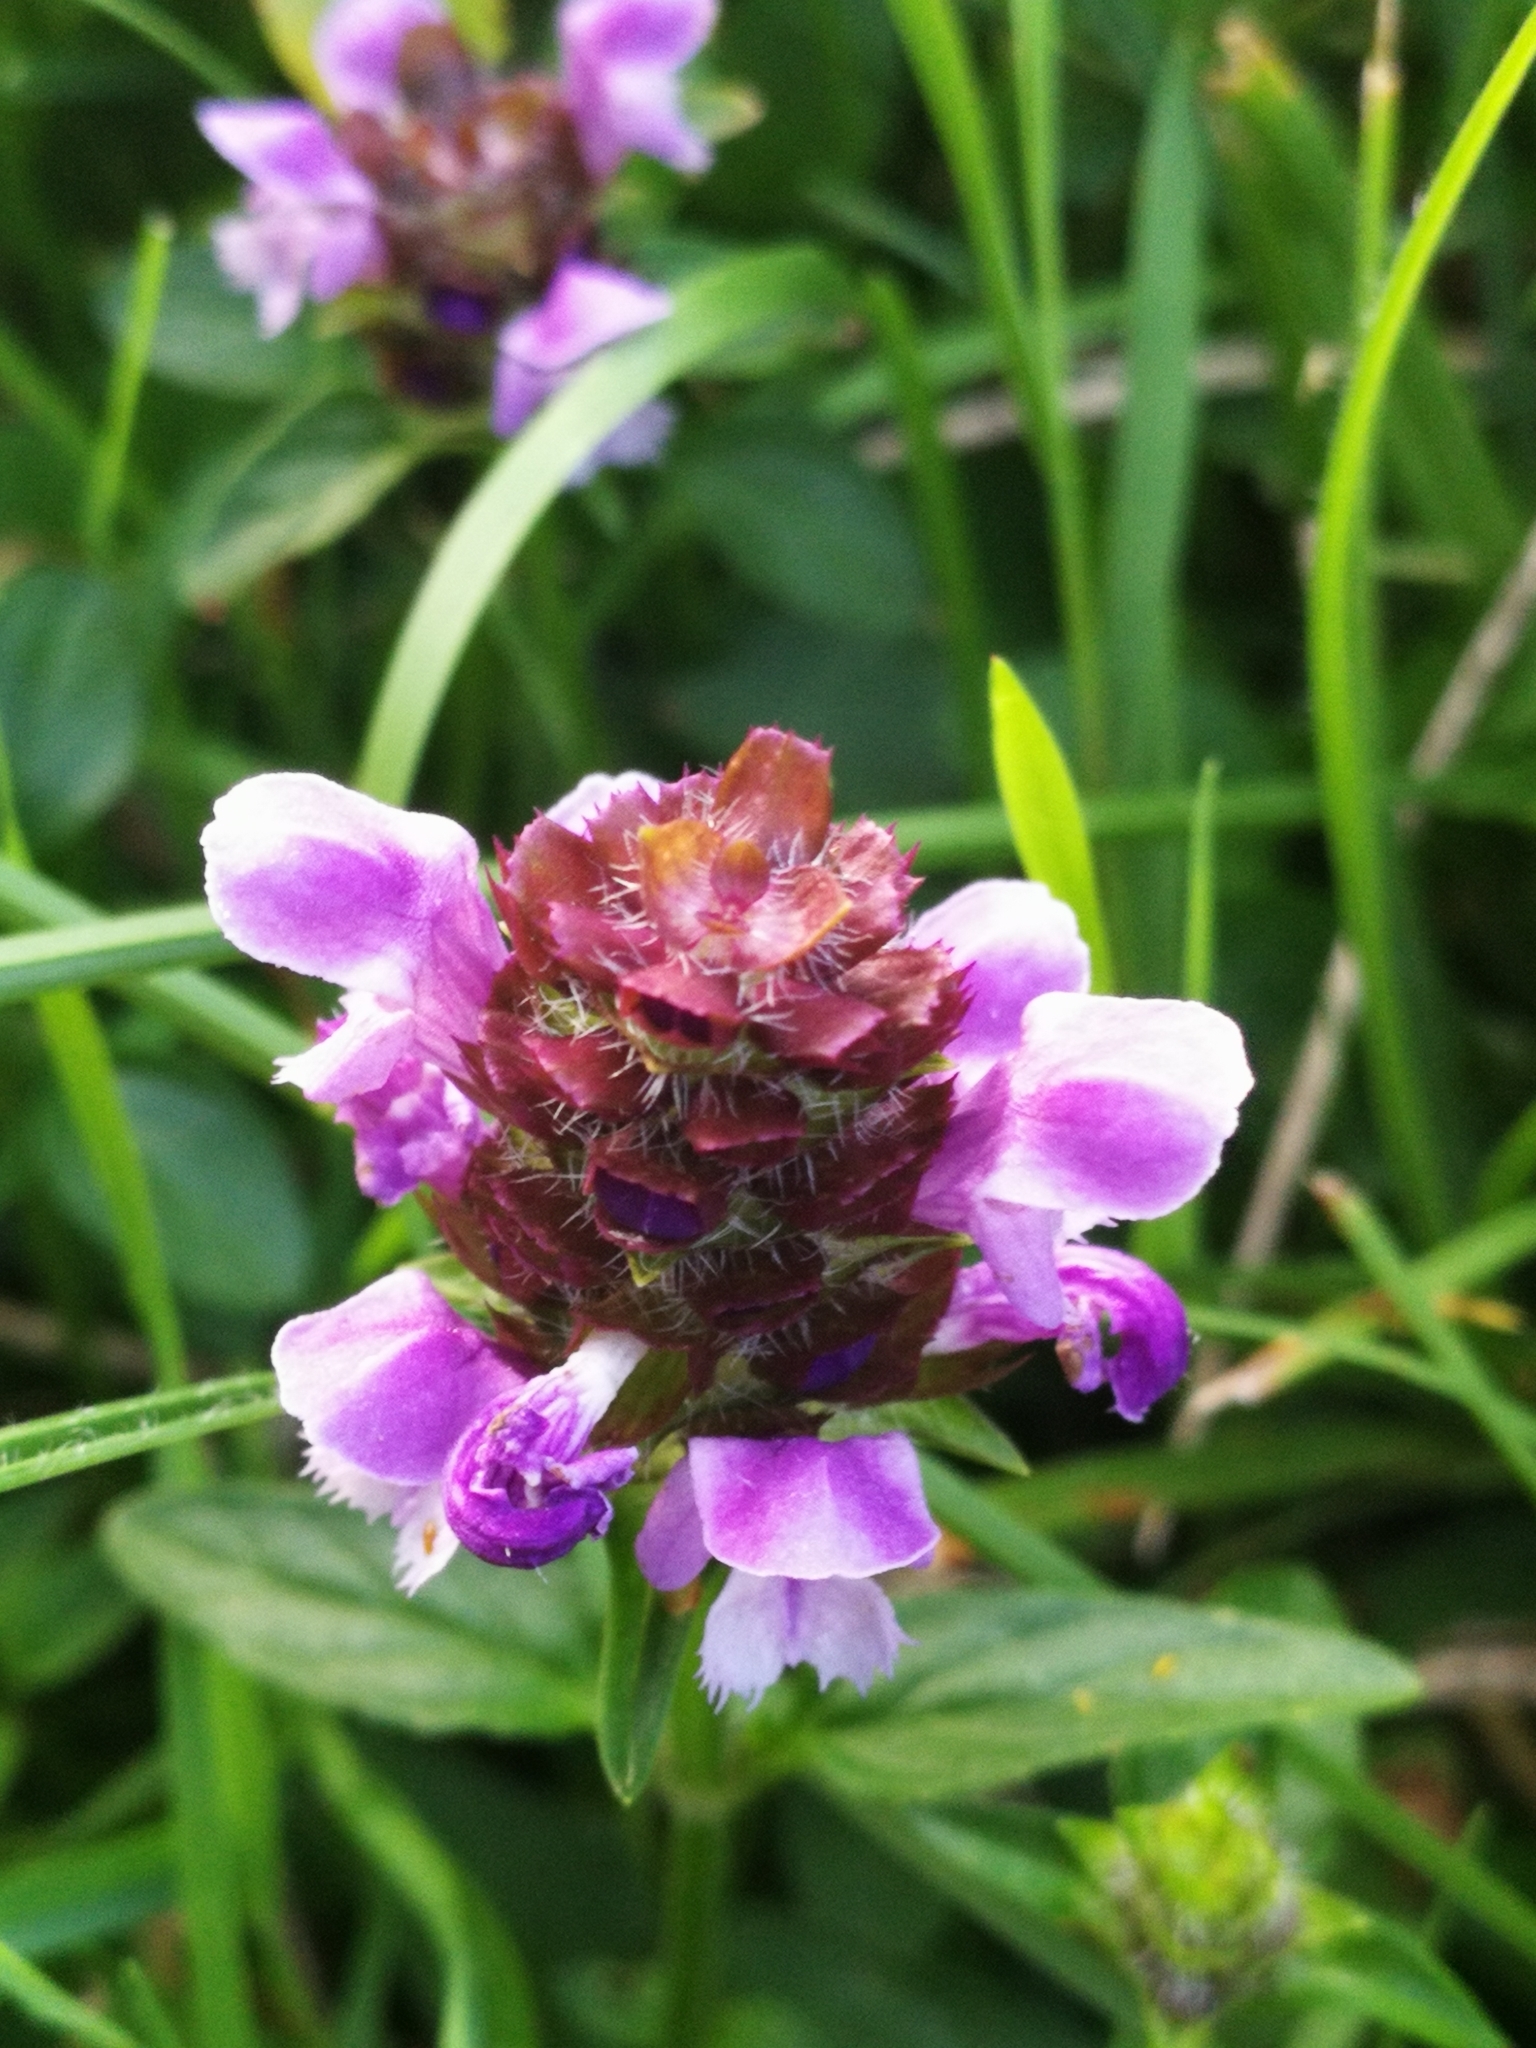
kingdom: Plantae
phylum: Tracheophyta
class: Magnoliopsida
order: Lamiales
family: Lamiaceae
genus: Prunella
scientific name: Prunella vulgaris
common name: Heal-all
